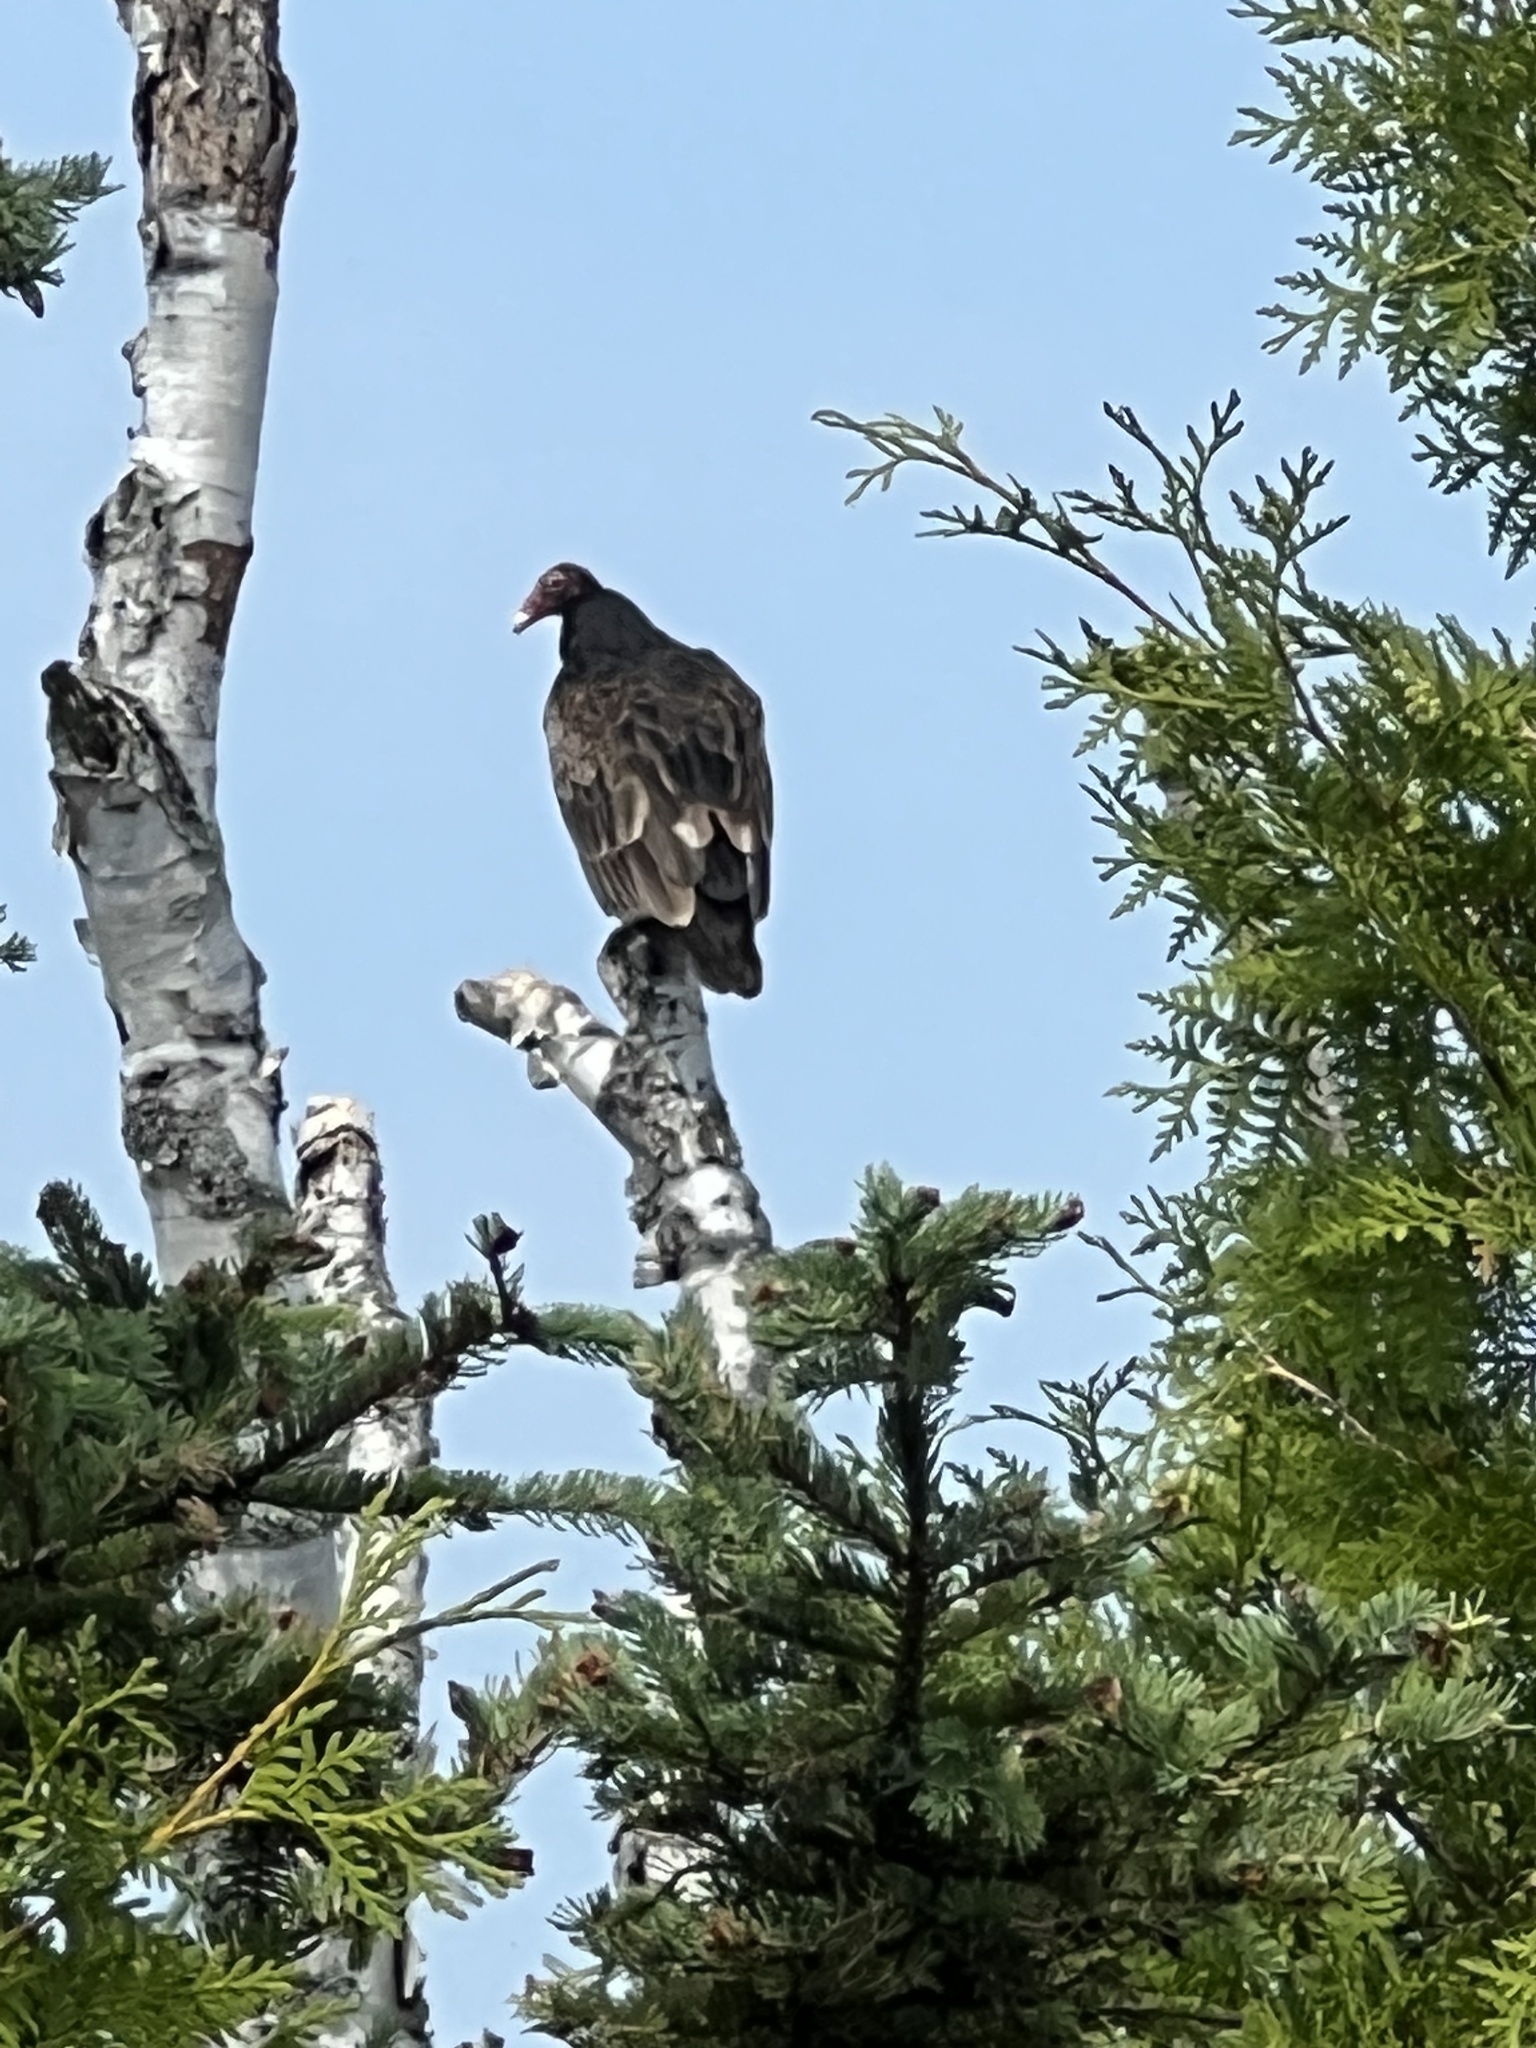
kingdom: Animalia
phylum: Chordata
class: Aves
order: Accipitriformes
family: Cathartidae
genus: Cathartes
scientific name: Cathartes aura
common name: Turkey vulture
